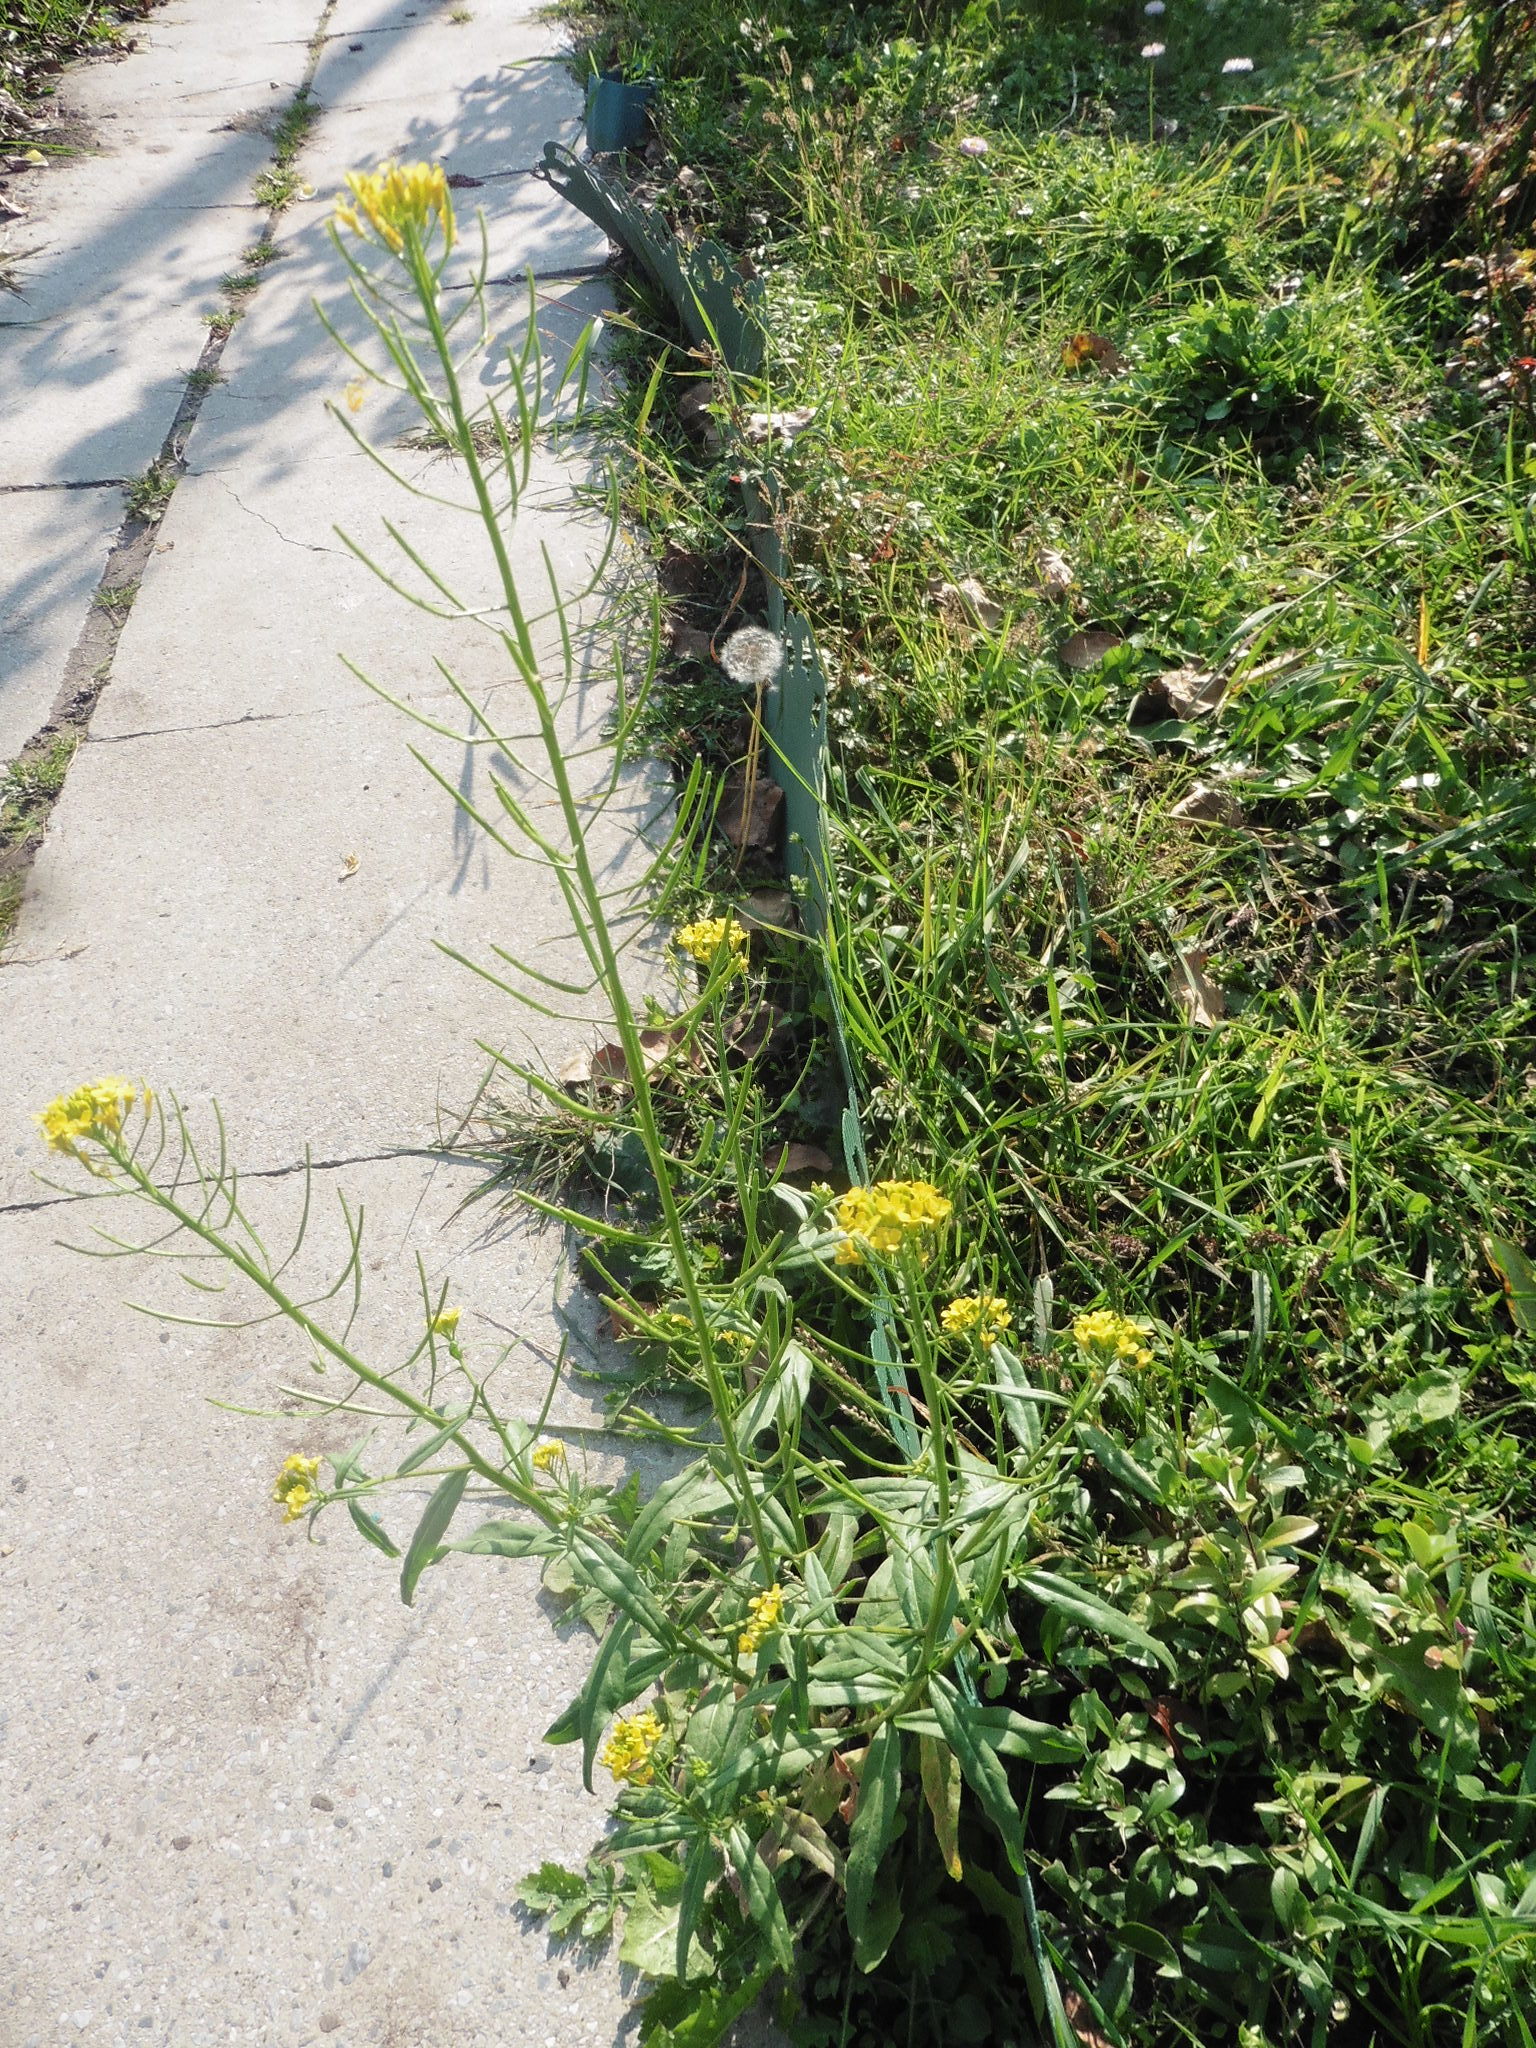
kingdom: Plantae
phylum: Tracheophyta
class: Magnoliopsida
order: Brassicales
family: Brassicaceae
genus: Erysimum
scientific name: Erysimum cheiranthoides
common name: Treacle mustard
